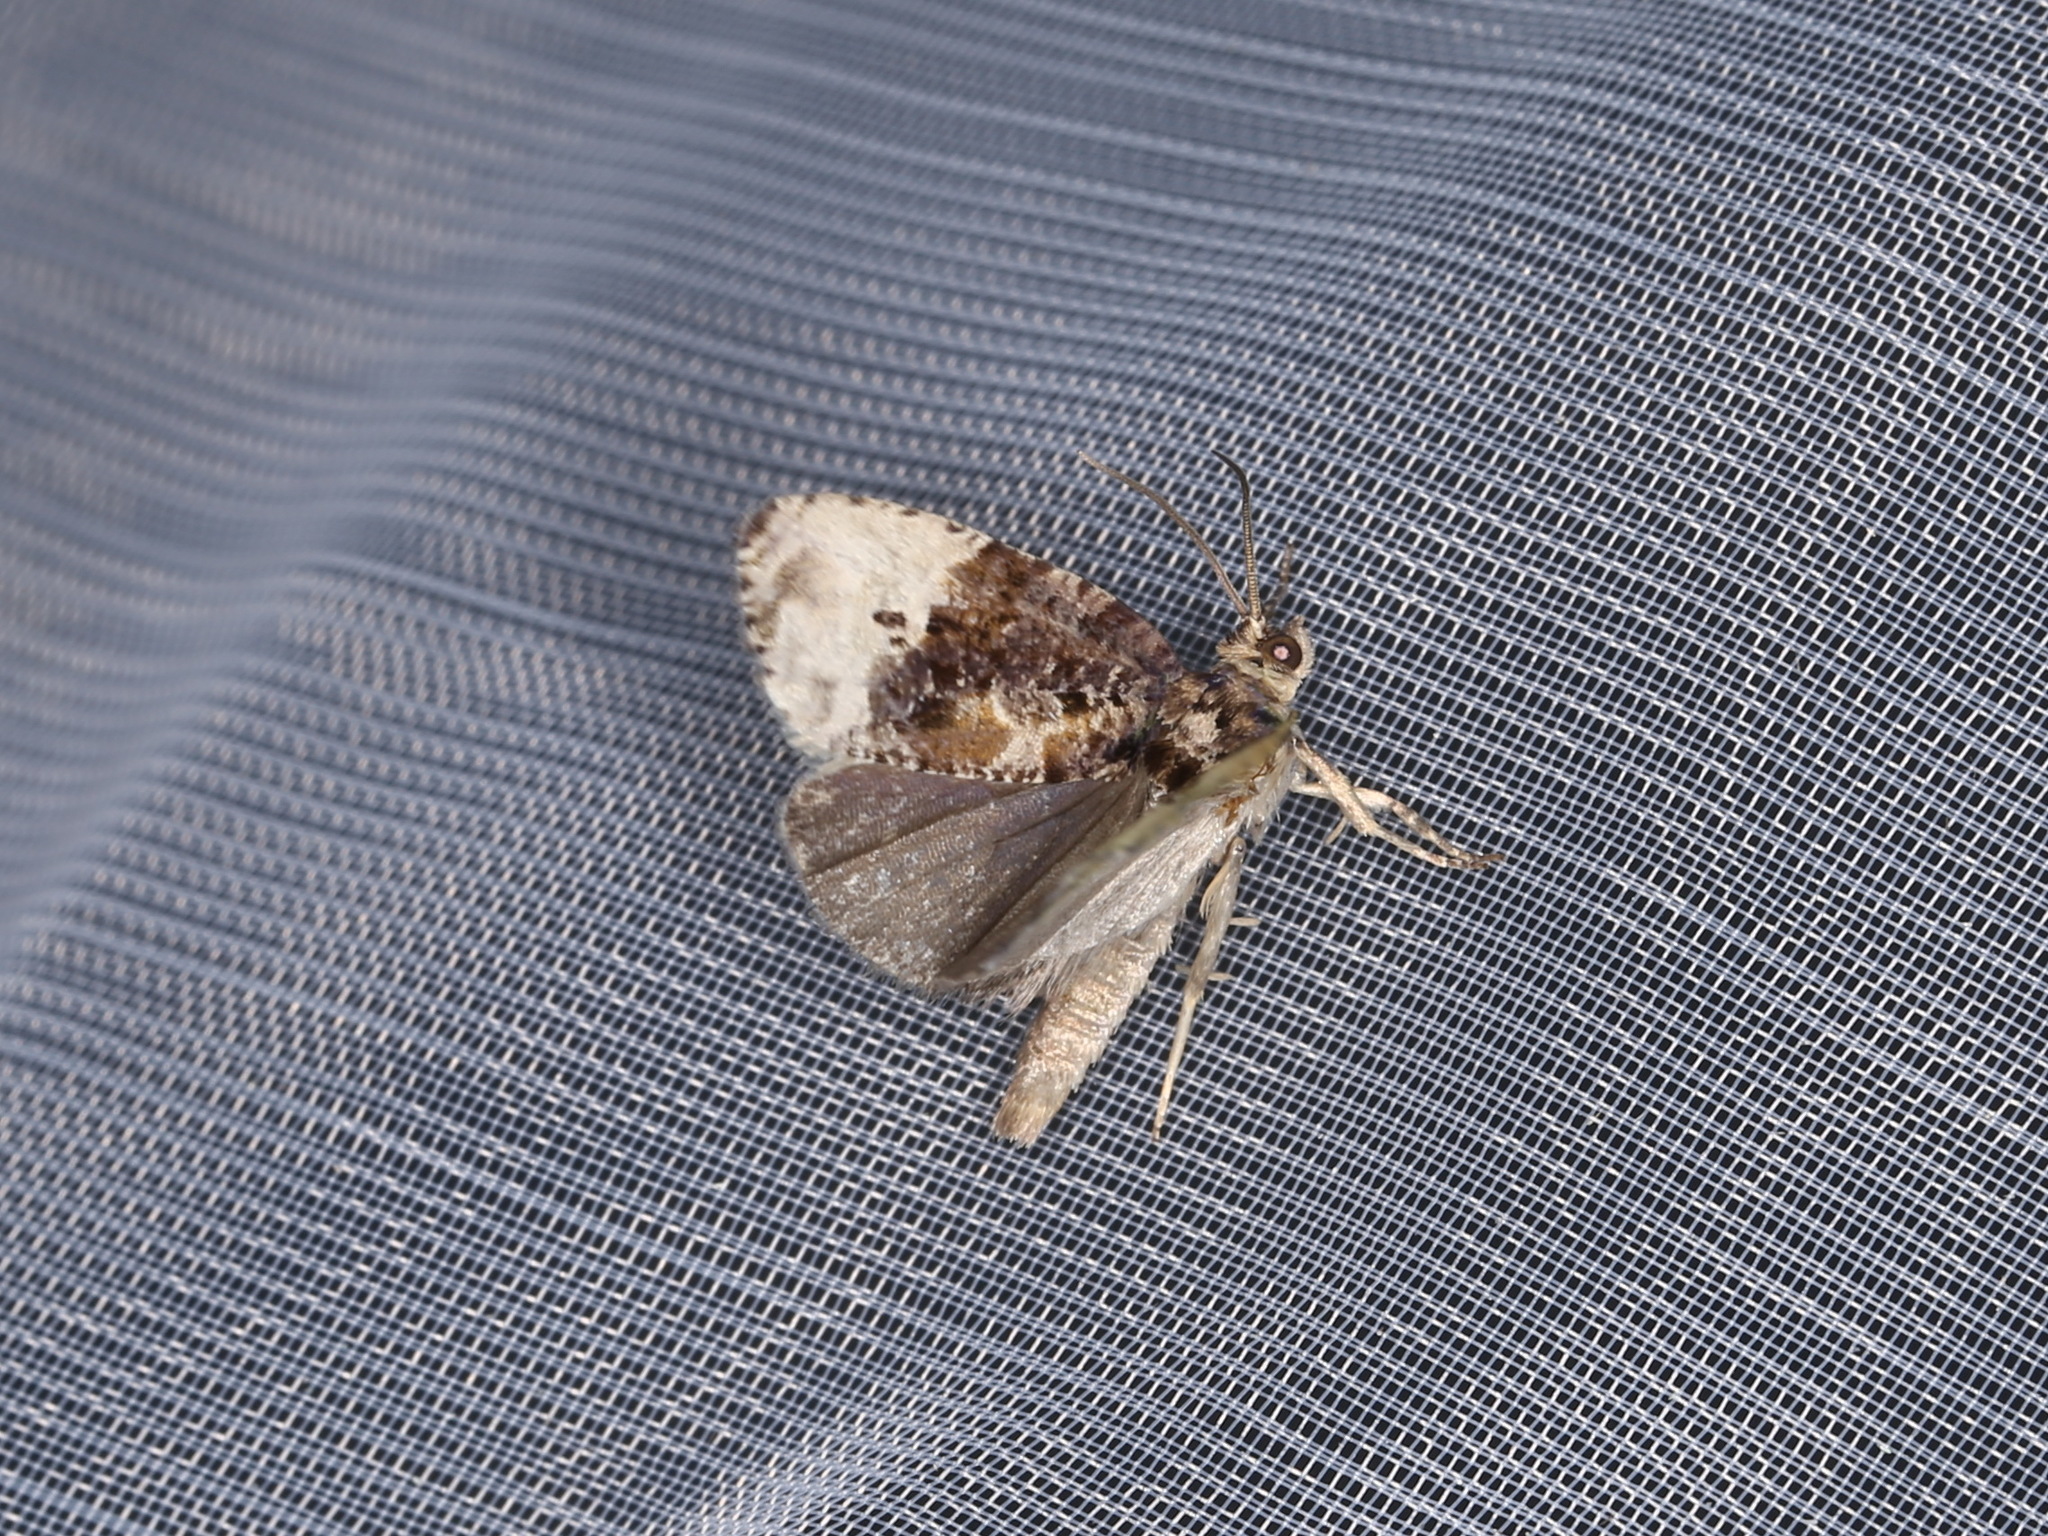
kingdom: Animalia
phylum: Arthropoda
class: Insecta
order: Lepidoptera
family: Tortricidae
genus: Hedya
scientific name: Hedya nubiferana
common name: Marbled orchard tortrix
